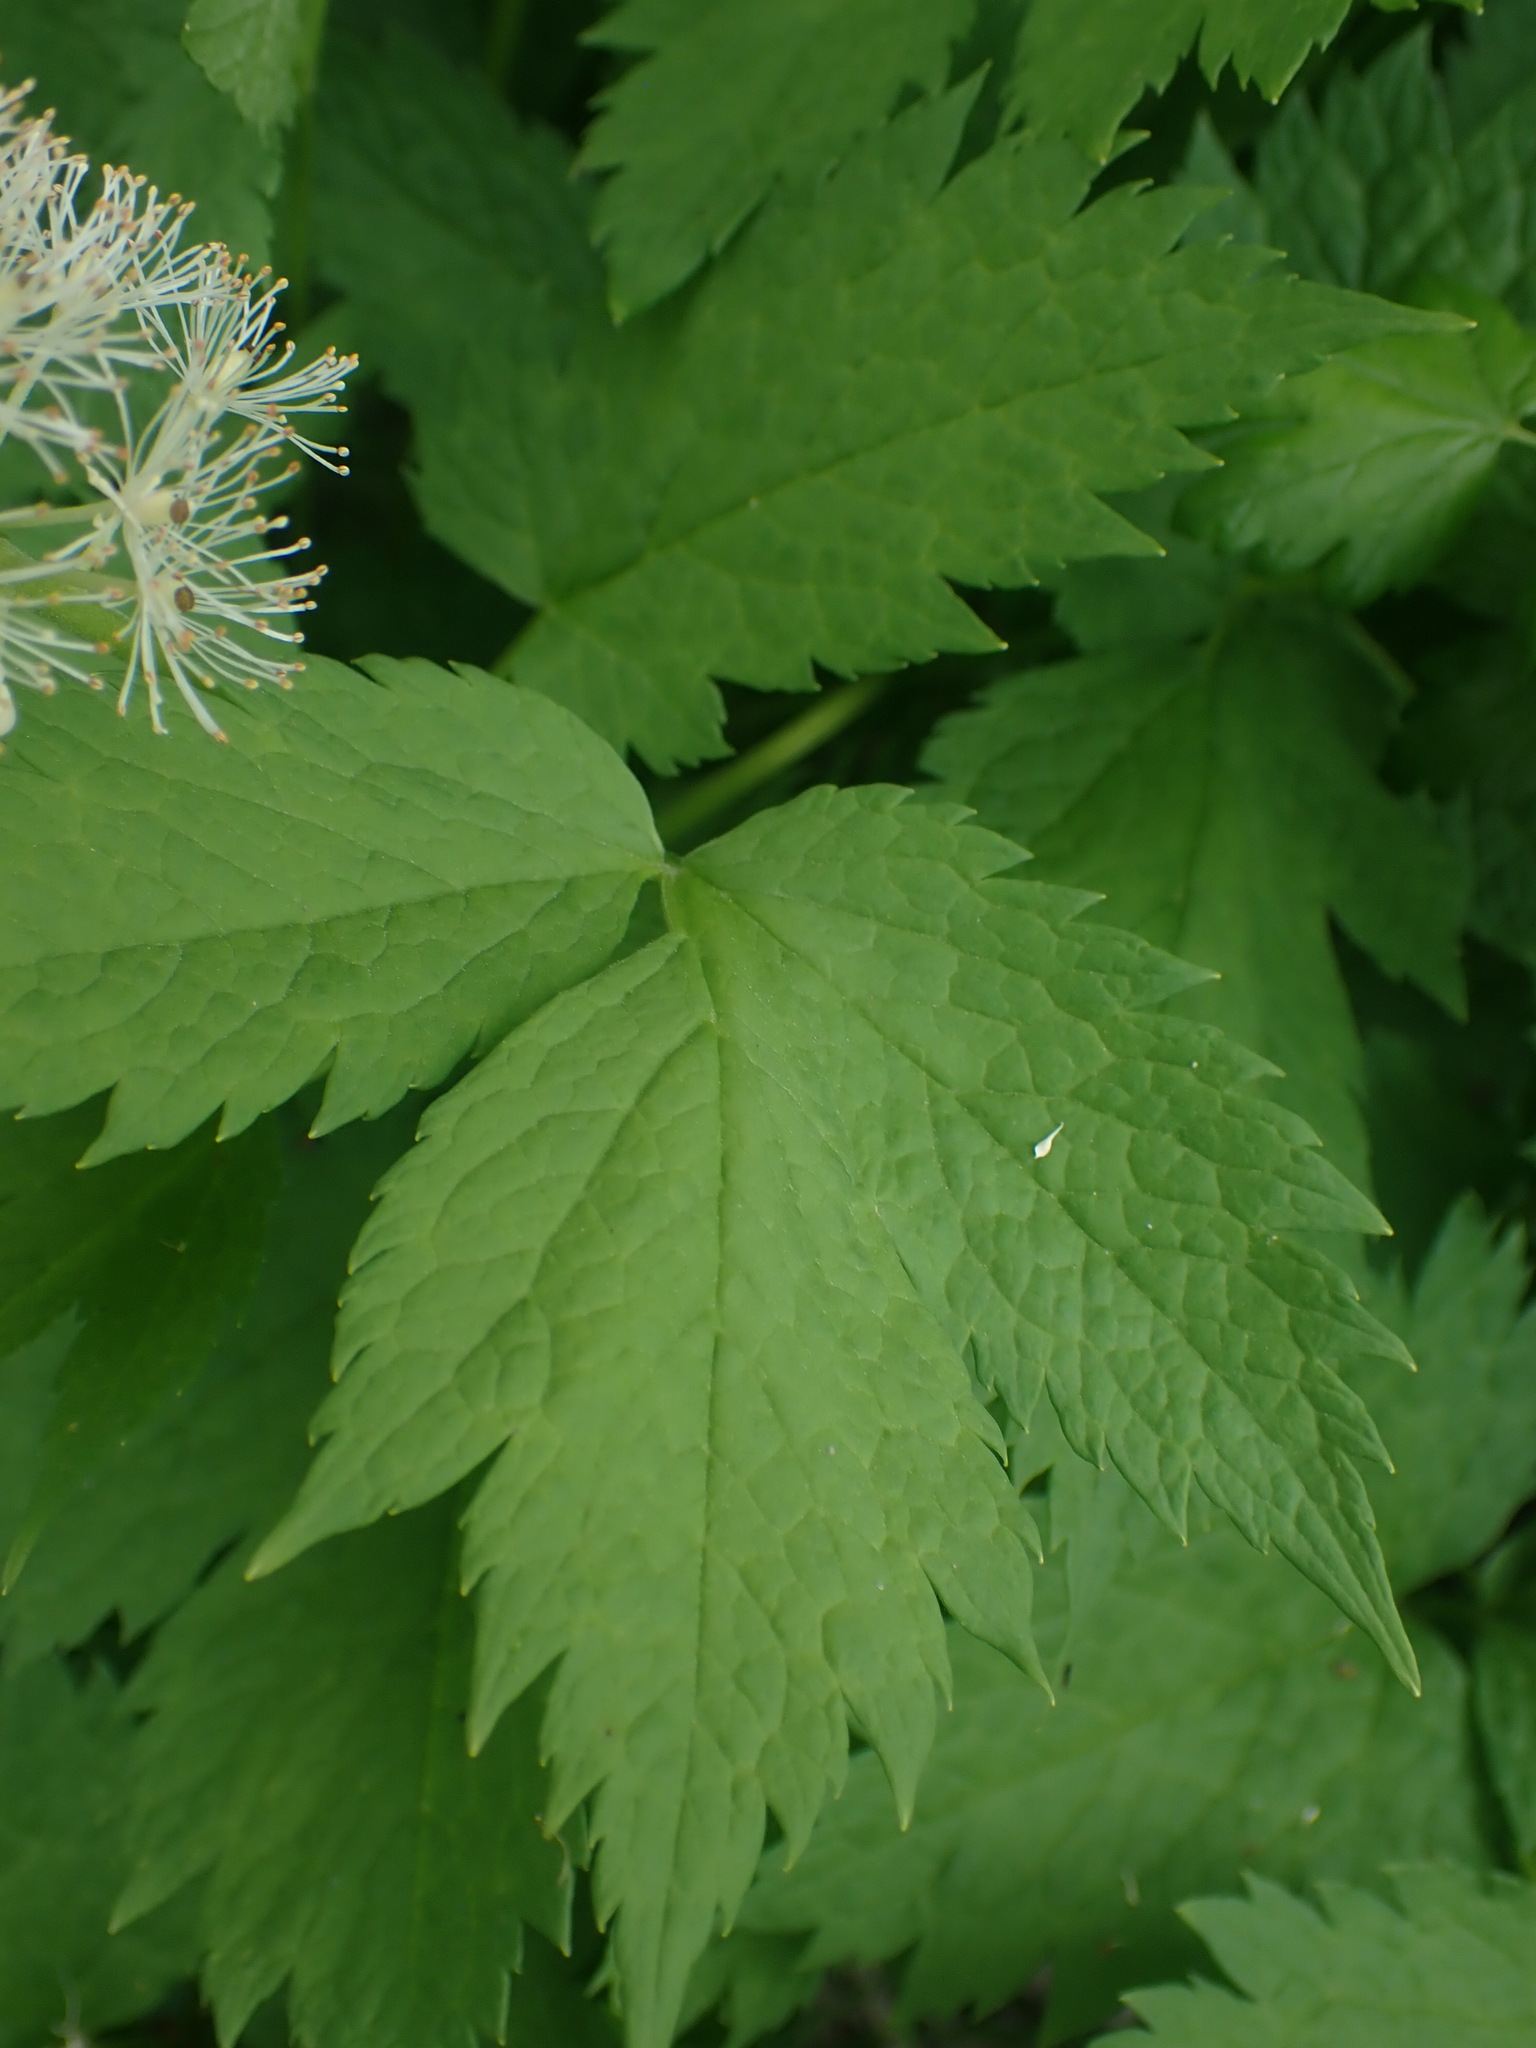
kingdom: Plantae
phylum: Tracheophyta
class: Magnoliopsida
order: Ranunculales
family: Ranunculaceae
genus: Actaea
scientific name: Actaea rubra
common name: Red baneberry
